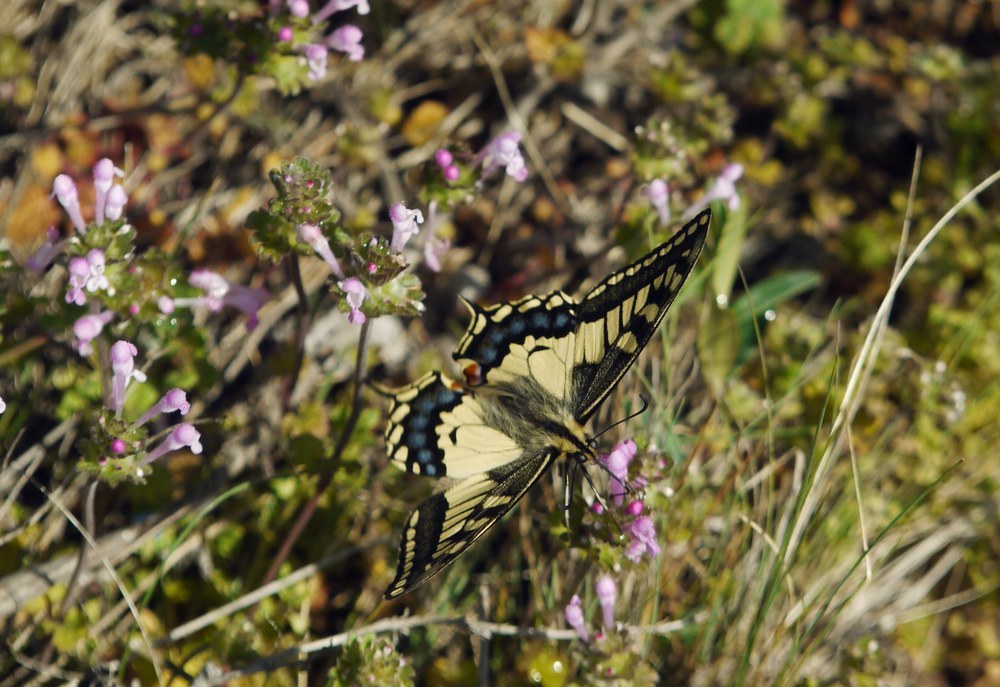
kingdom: Animalia
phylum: Arthropoda
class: Insecta
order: Lepidoptera
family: Papilionidae
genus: Papilio
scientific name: Papilio machaon
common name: Swallowtail
